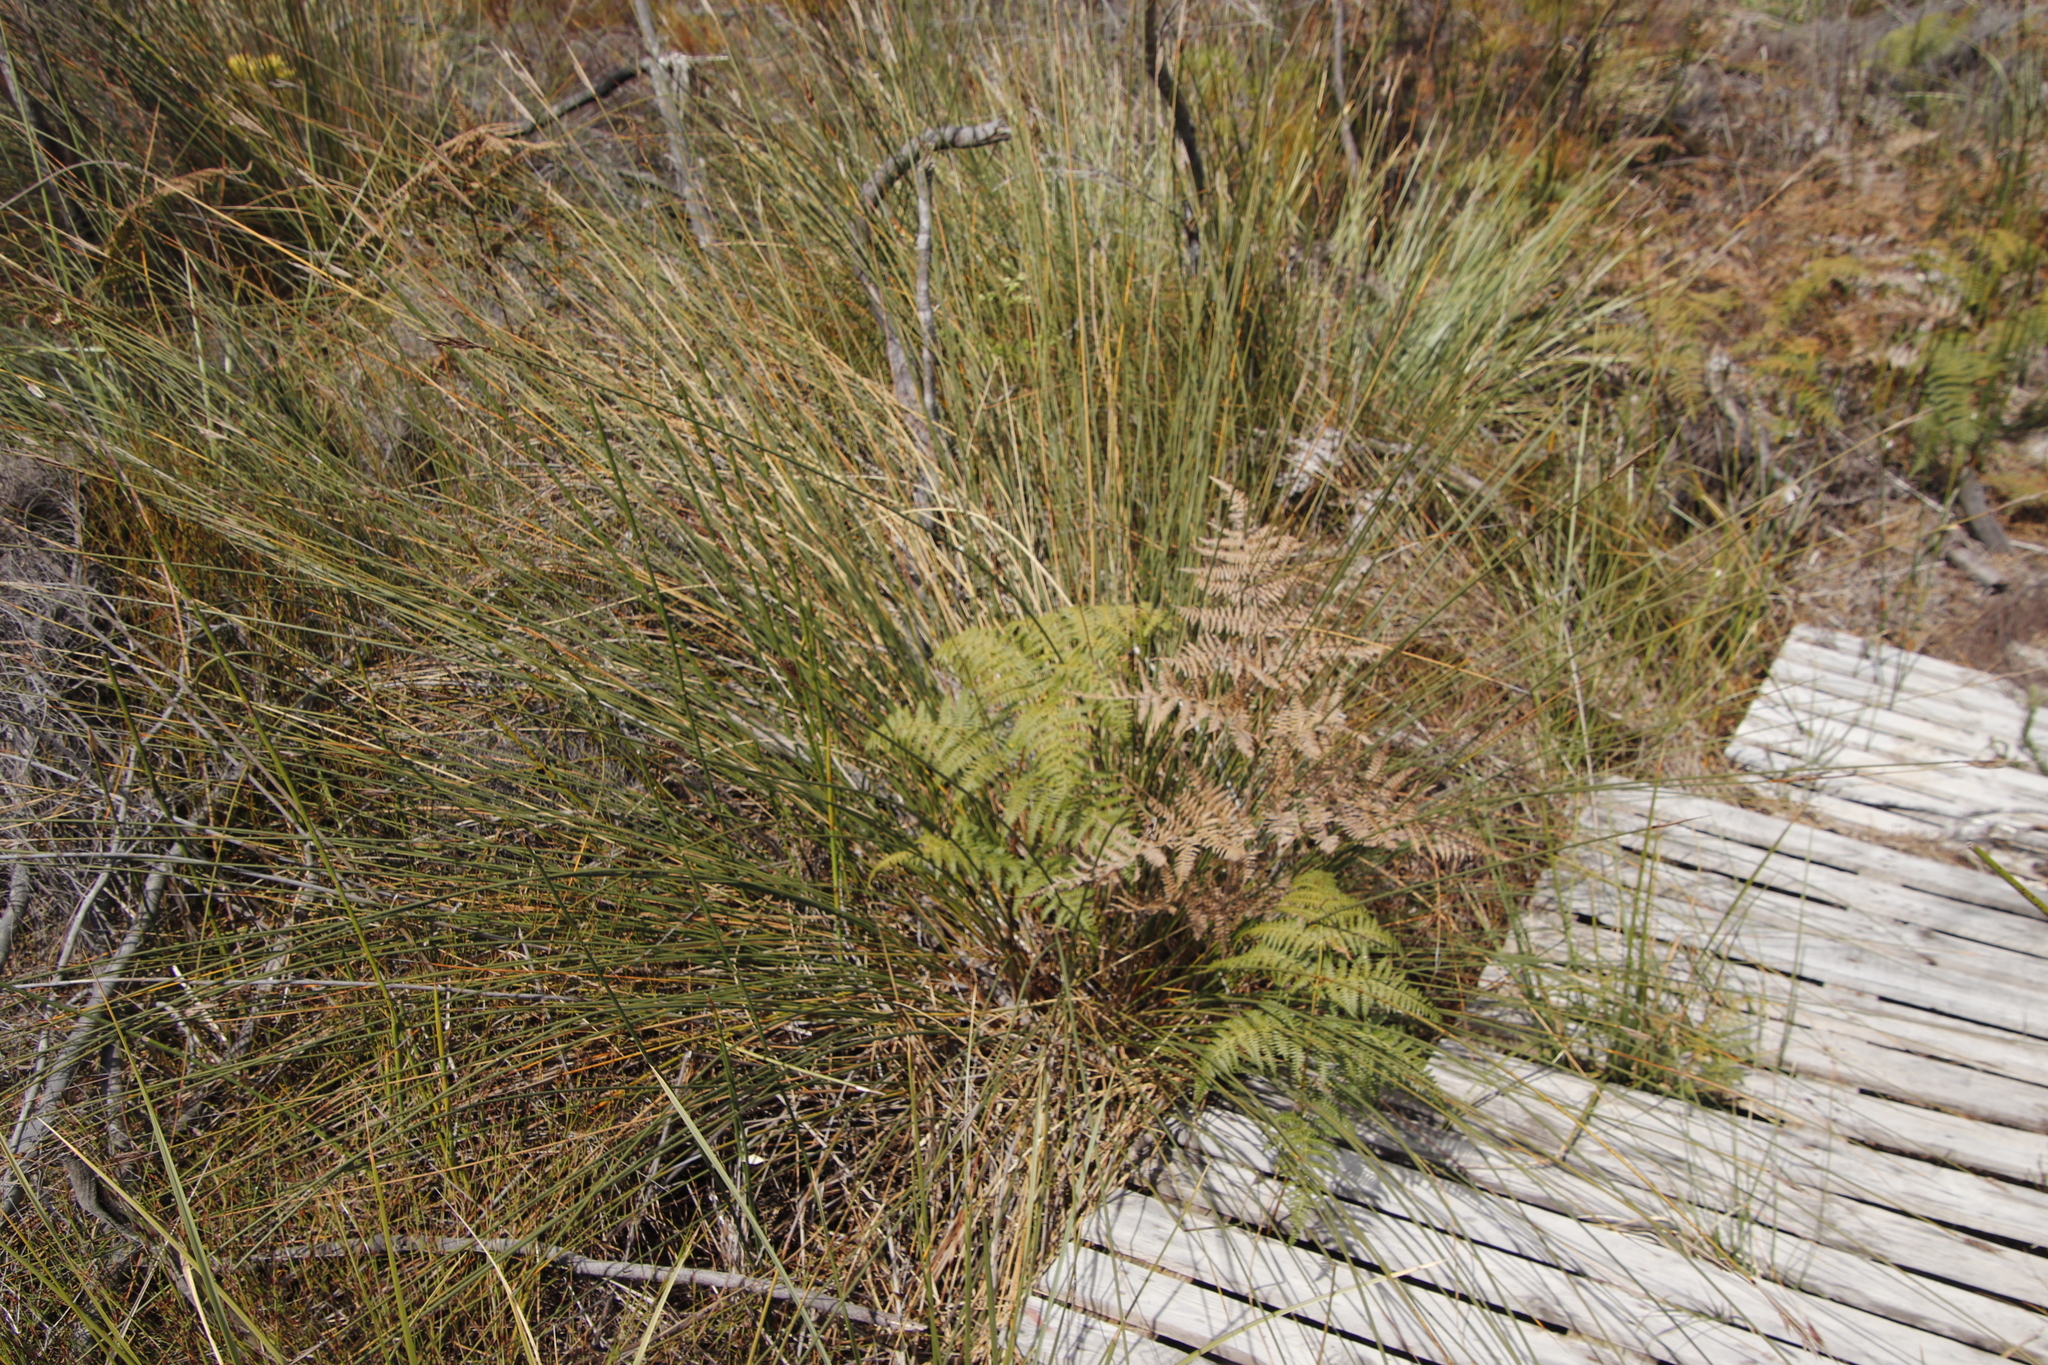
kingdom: Plantae
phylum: Tracheophyta
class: Polypodiopsida
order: Polypodiales
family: Dennstaedtiaceae
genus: Pteridium
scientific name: Pteridium aquilinum
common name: Bracken
